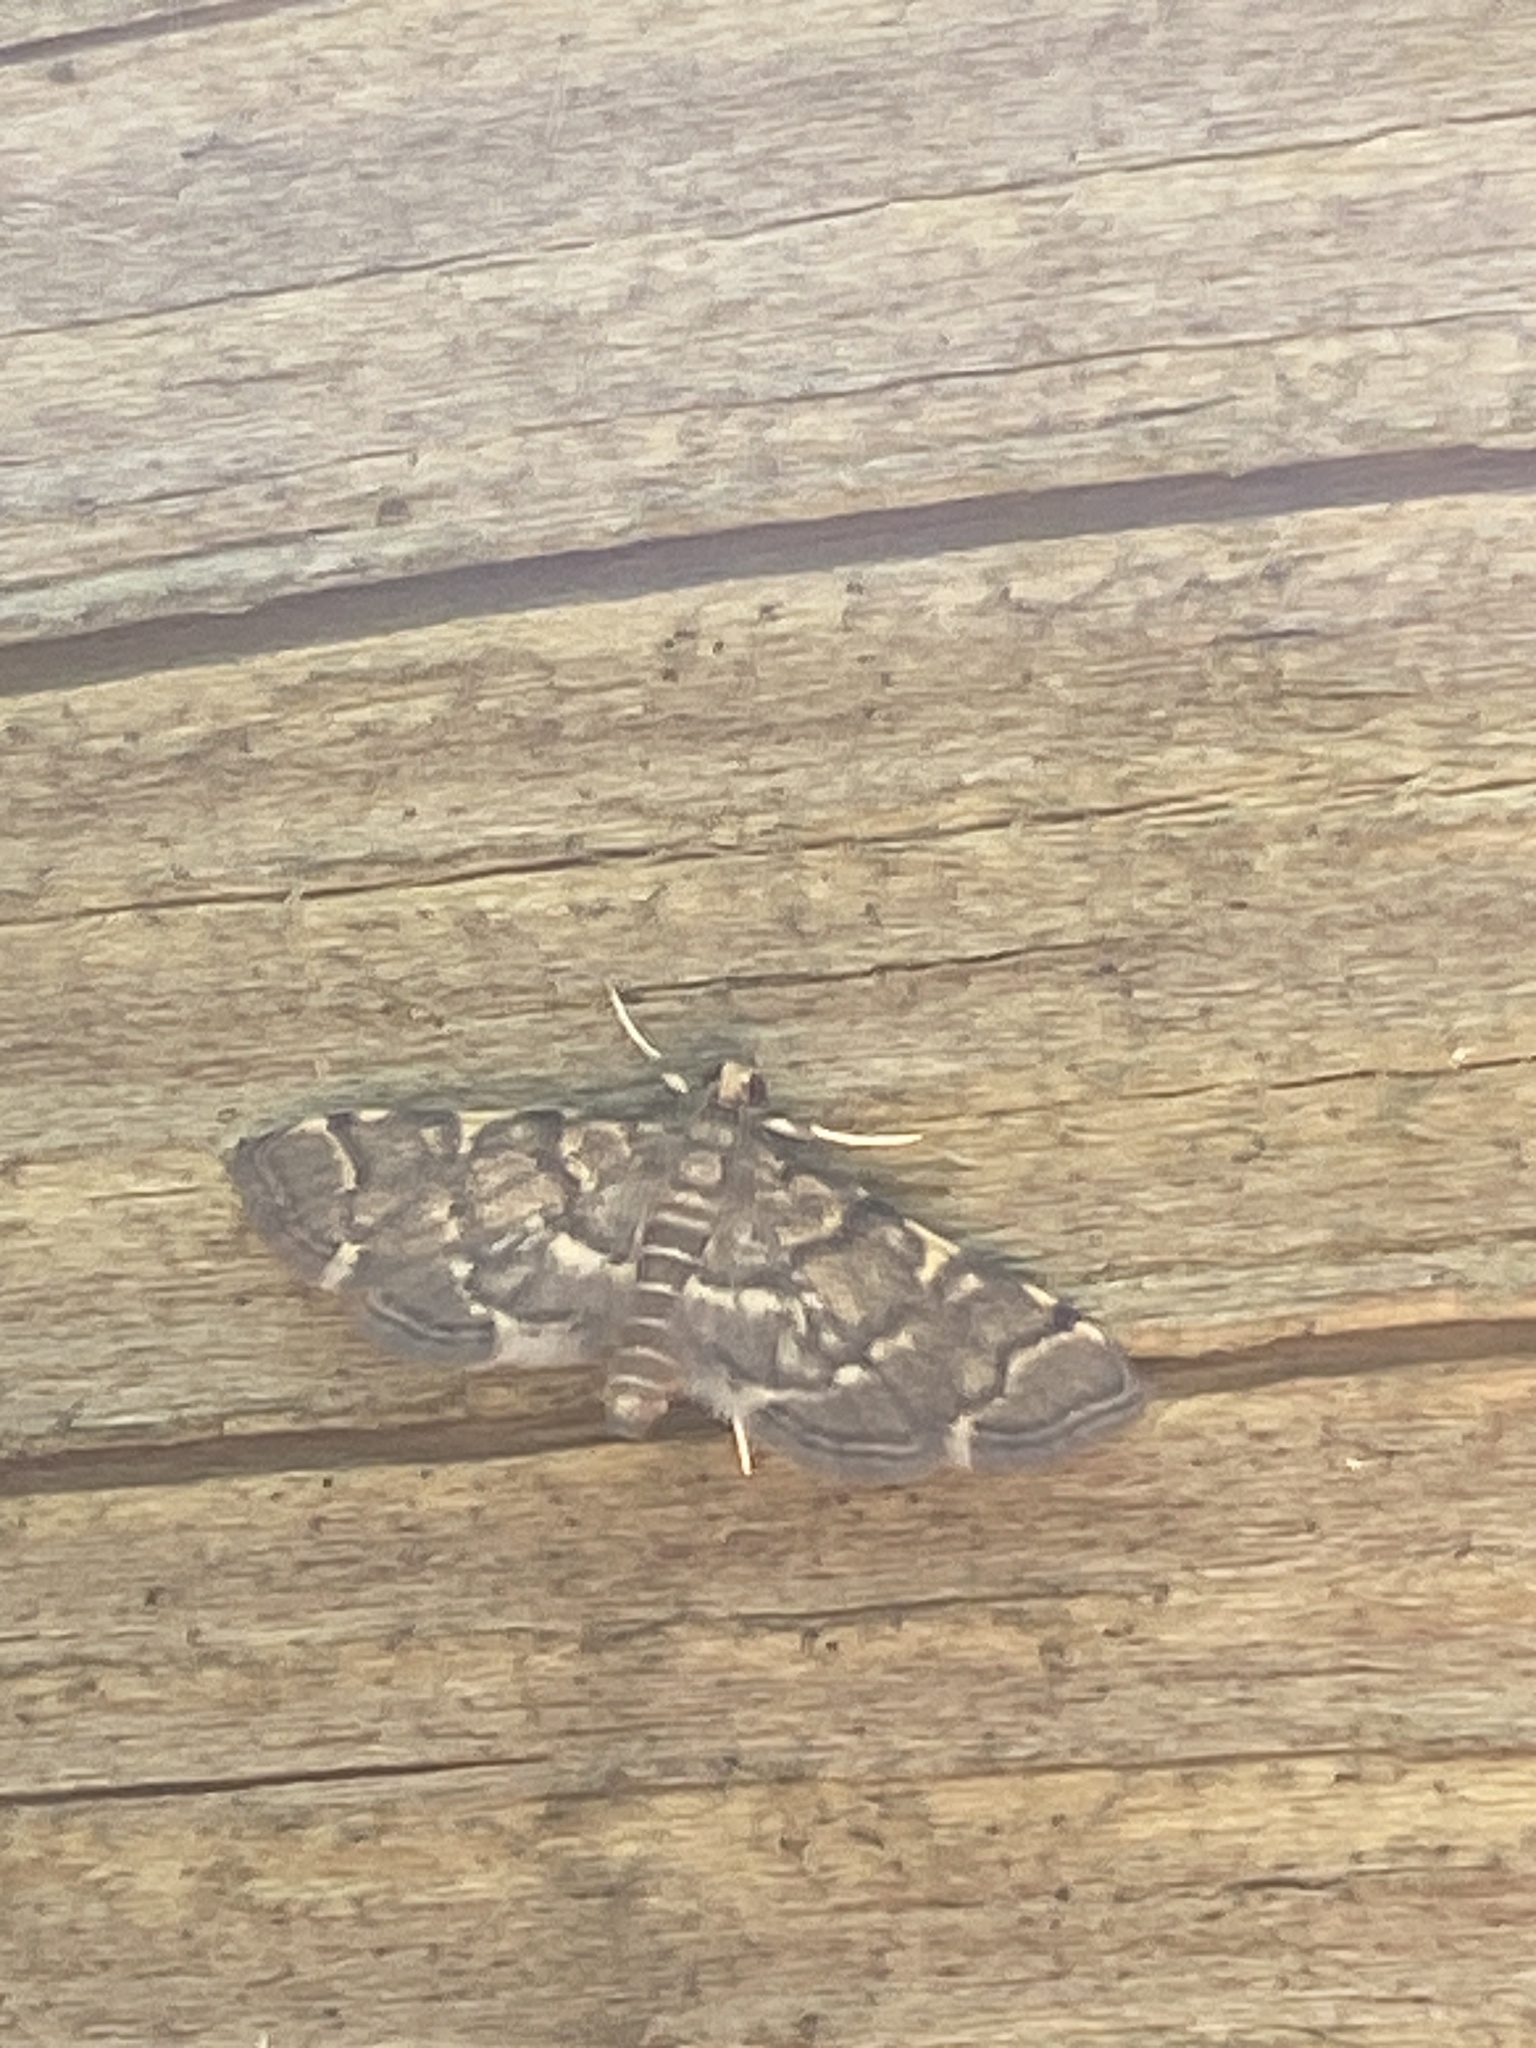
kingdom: Animalia
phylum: Arthropoda
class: Insecta
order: Lepidoptera
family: Crambidae
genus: Anageshna
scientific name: Anageshna primordialis
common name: Yellow-spotted webworm moth
